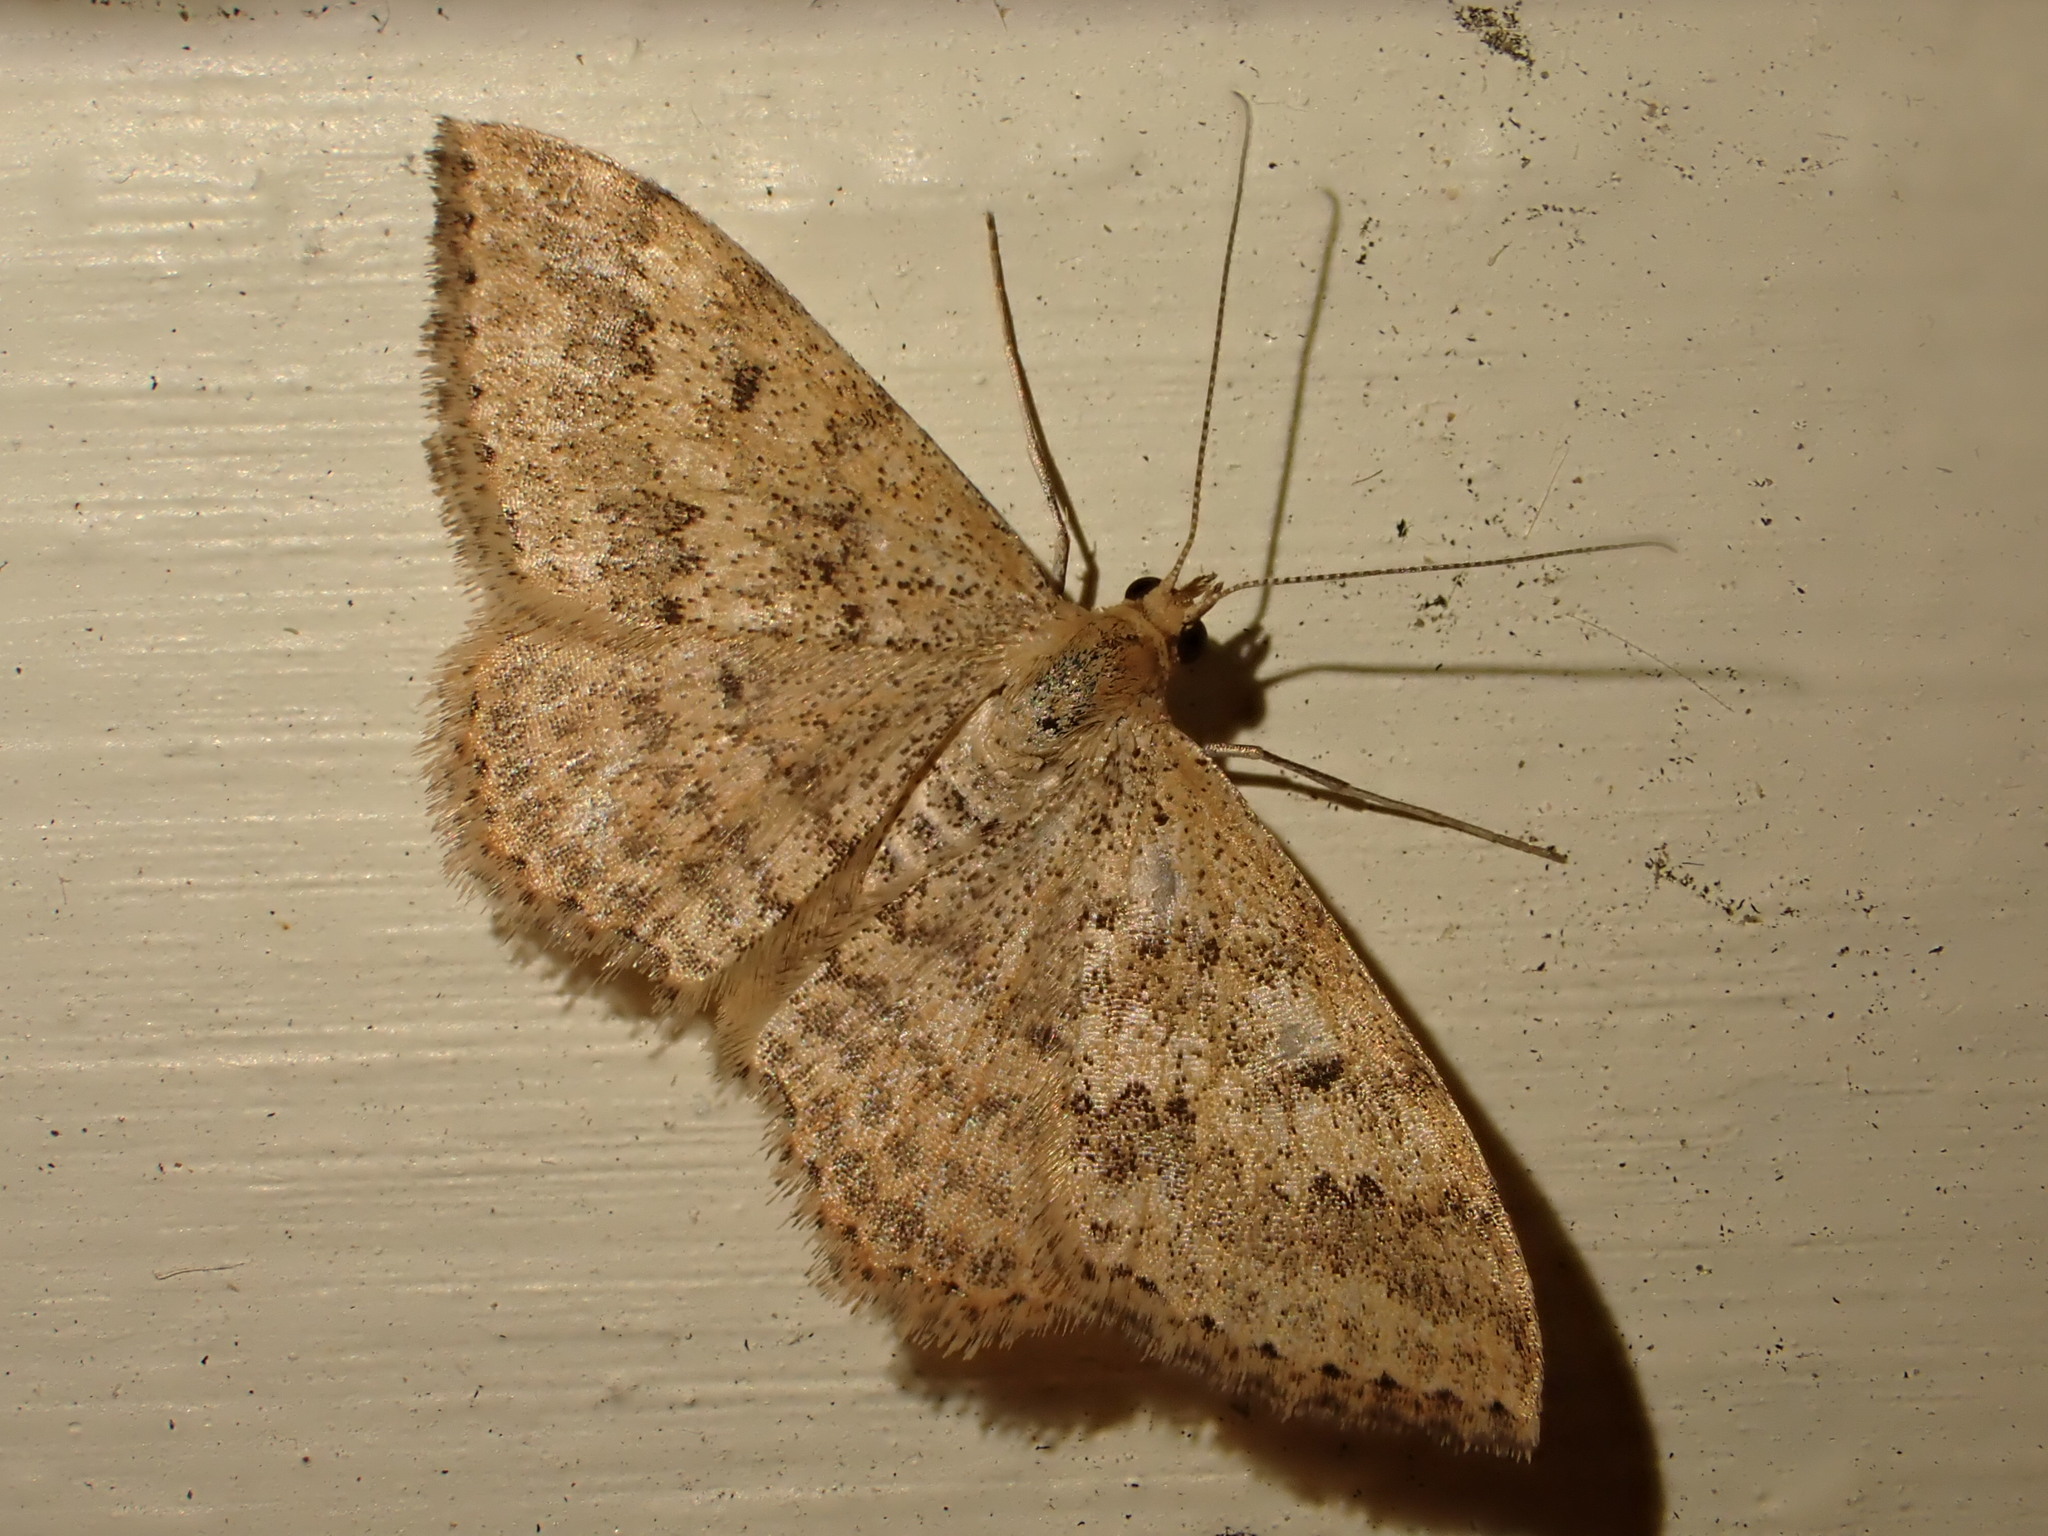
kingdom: Animalia
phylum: Arthropoda
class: Insecta
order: Lepidoptera
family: Geometridae
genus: Scopula
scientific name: Scopula rubraria
